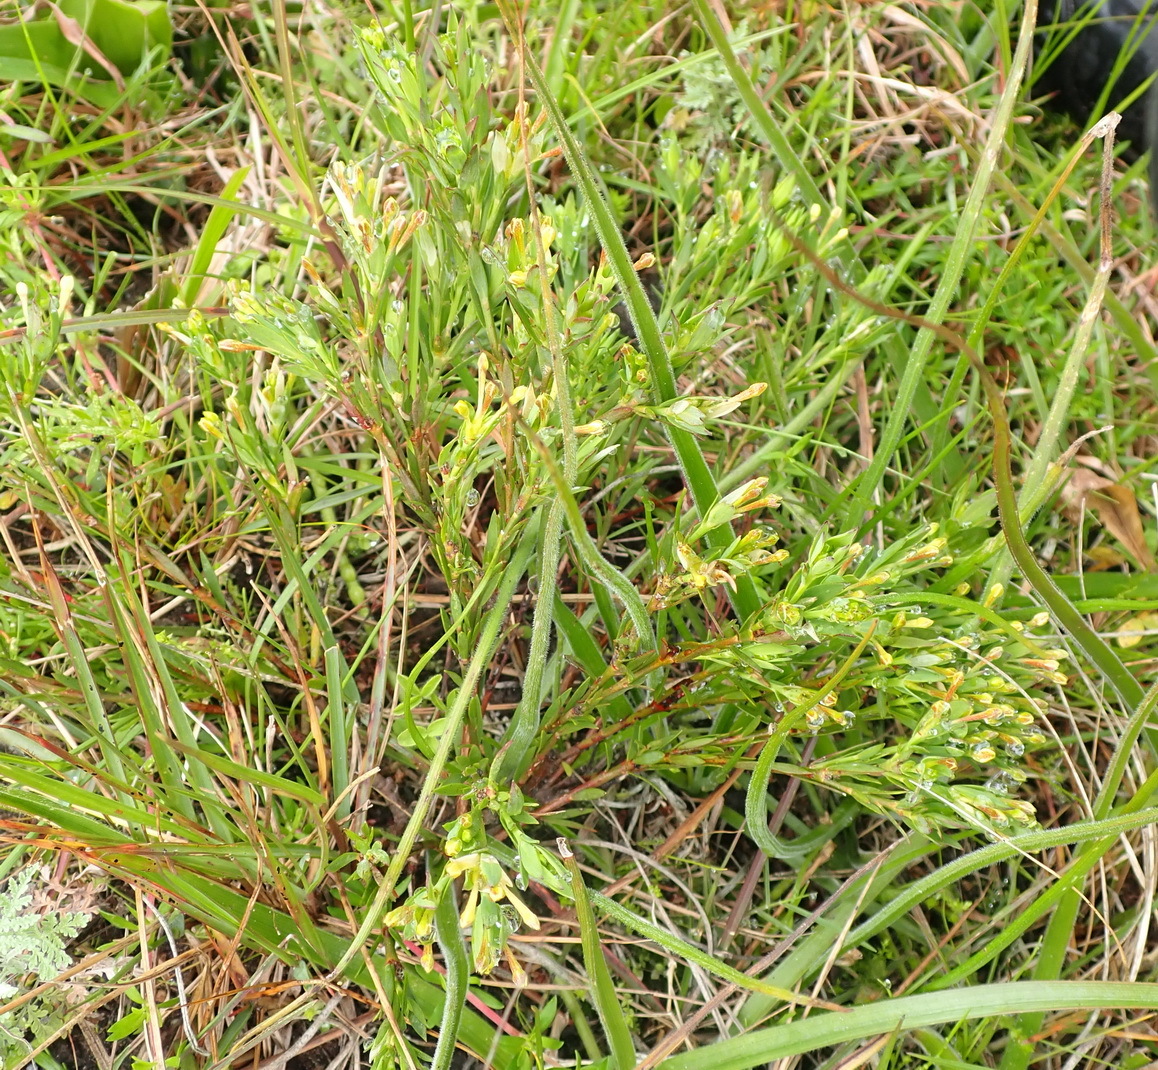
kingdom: Plantae
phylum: Tracheophyta
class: Magnoliopsida
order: Malvales
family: Thymelaeaceae
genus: Gnidia
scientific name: Gnidia juniperifolia
